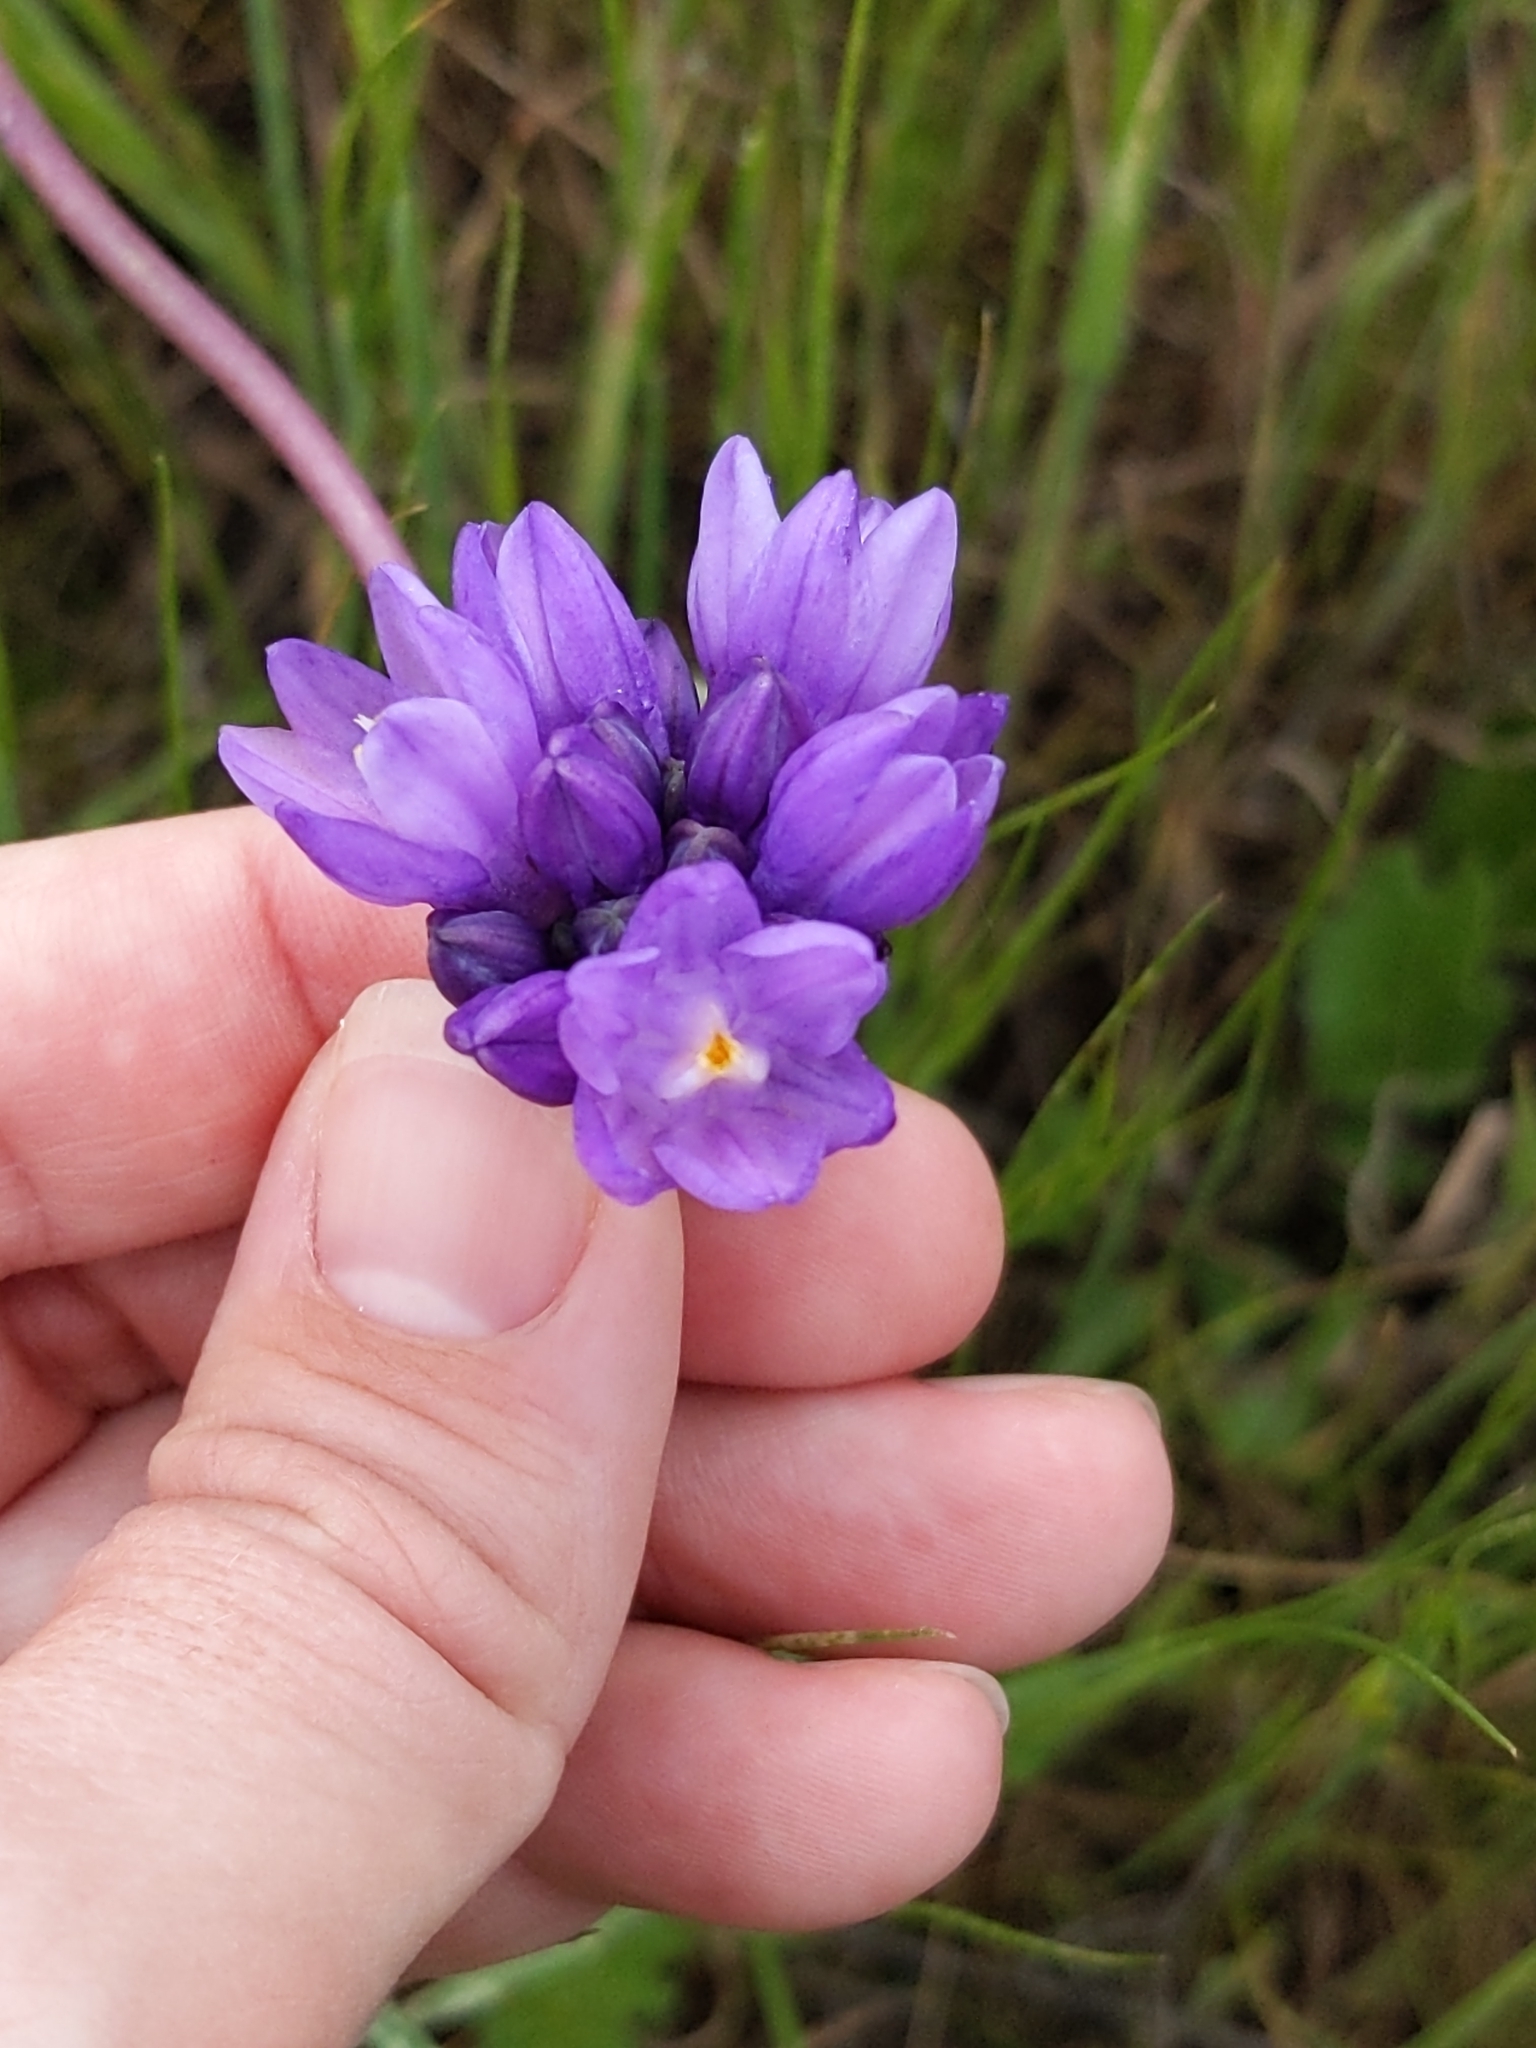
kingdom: Plantae
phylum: Tracheophyta
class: Liliopsida
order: Asparagales
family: Asparagaceae
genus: Dipterostemon
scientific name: Dipterostemon capitatus
